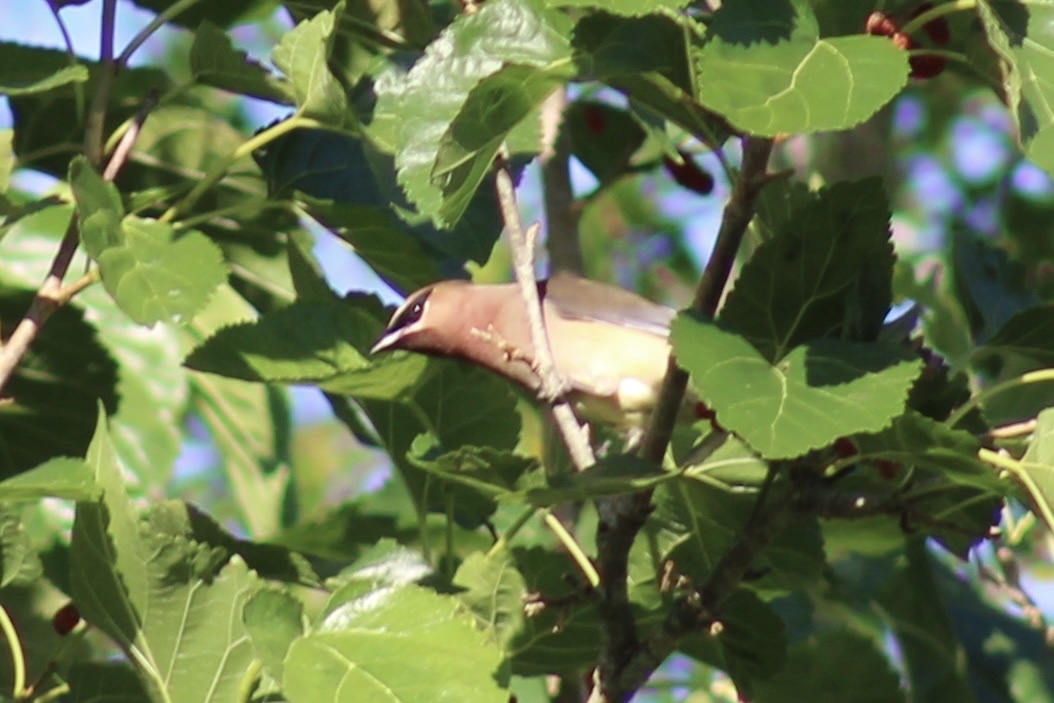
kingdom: Animalia
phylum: Chordata
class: Aves
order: Passeriformes
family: Bombycillidae
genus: Bombycilla
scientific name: Bombycilla cedrorum
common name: Cedar waxwing
